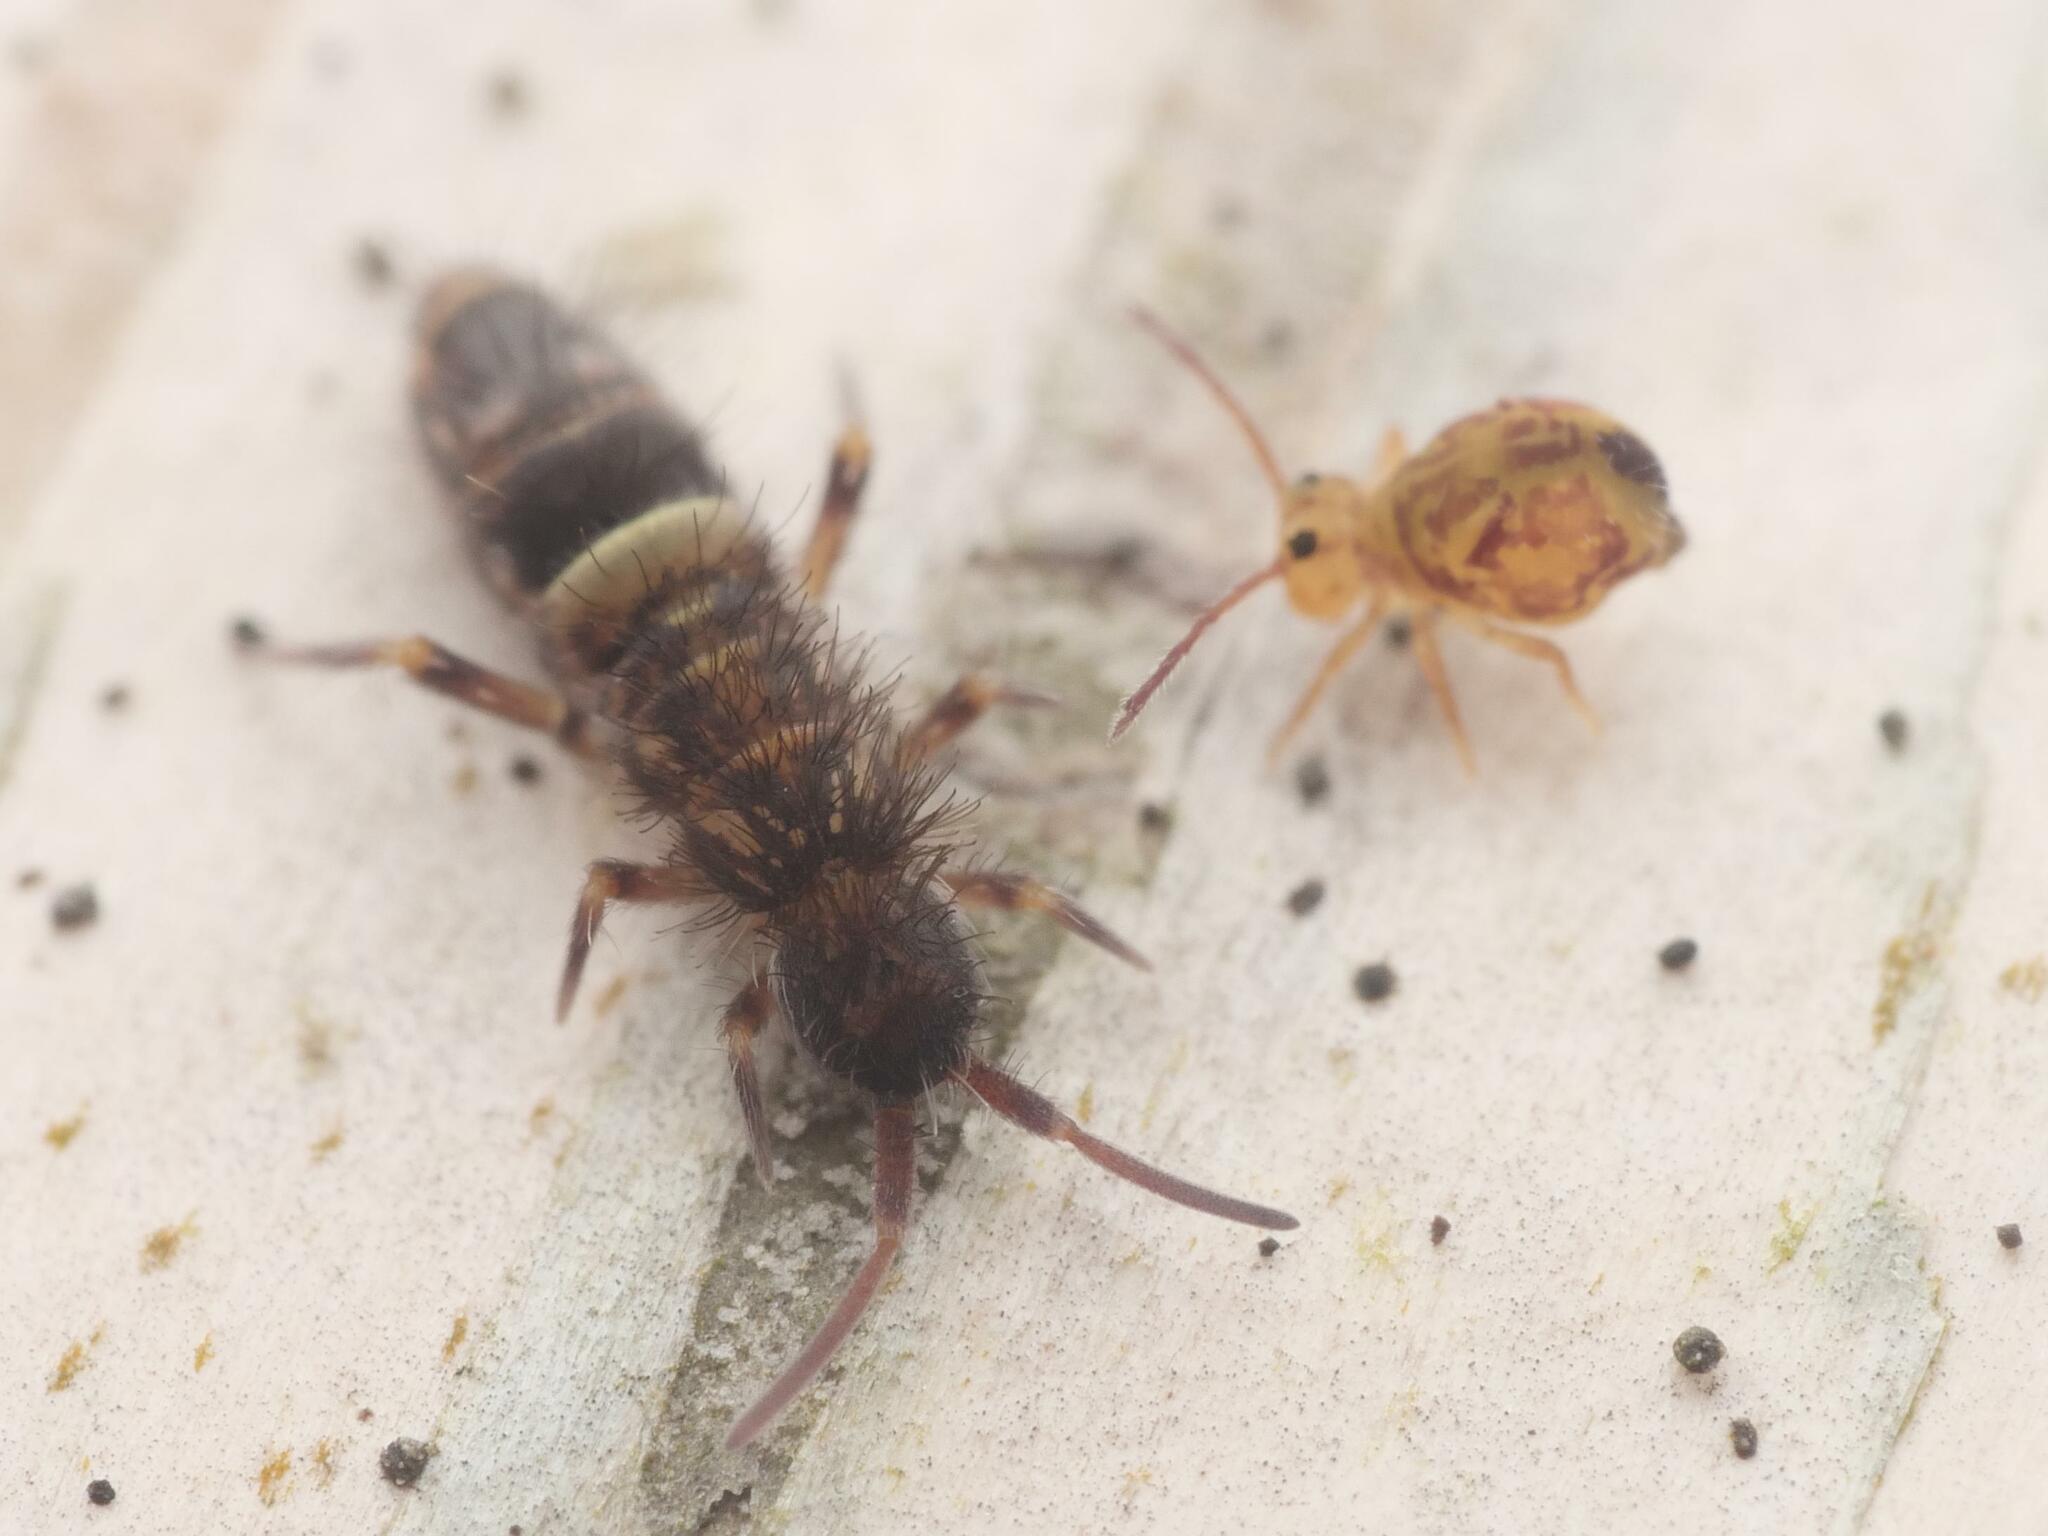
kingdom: Animalia
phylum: Arthropoda
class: Collembola
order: Entomobryomorpha
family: Orchesellidae
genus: Orchesella
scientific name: Orchesella cincta
